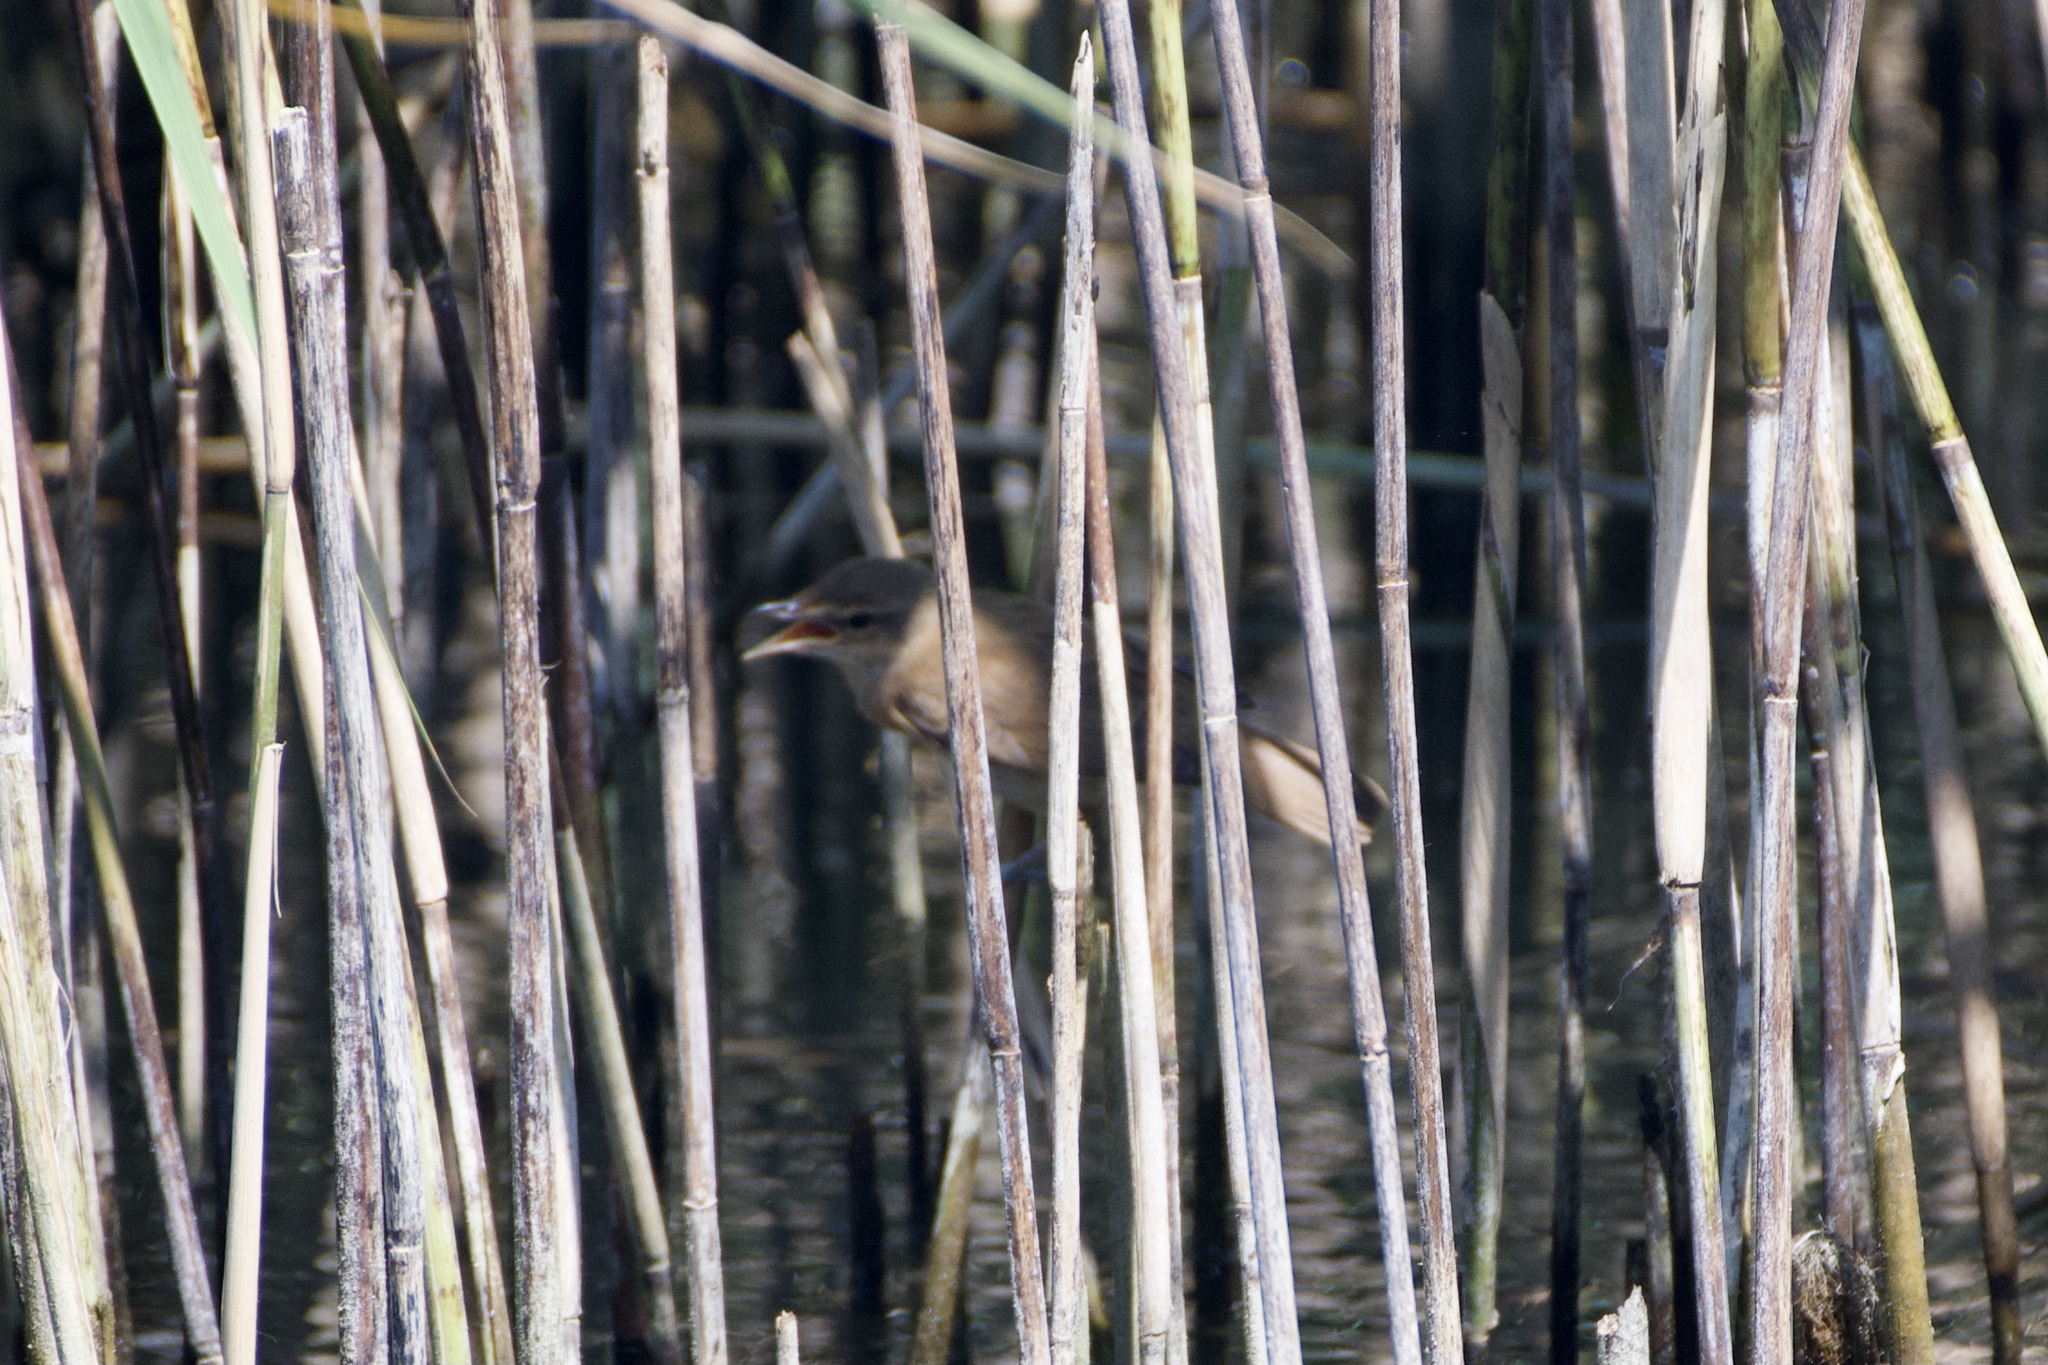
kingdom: Animalia
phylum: Chordata
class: Aves
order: Passeriformes
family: Acrocephalidae
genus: Acrocephalus
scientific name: Acrocephalus arundinaceus
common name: Great reed warbler
